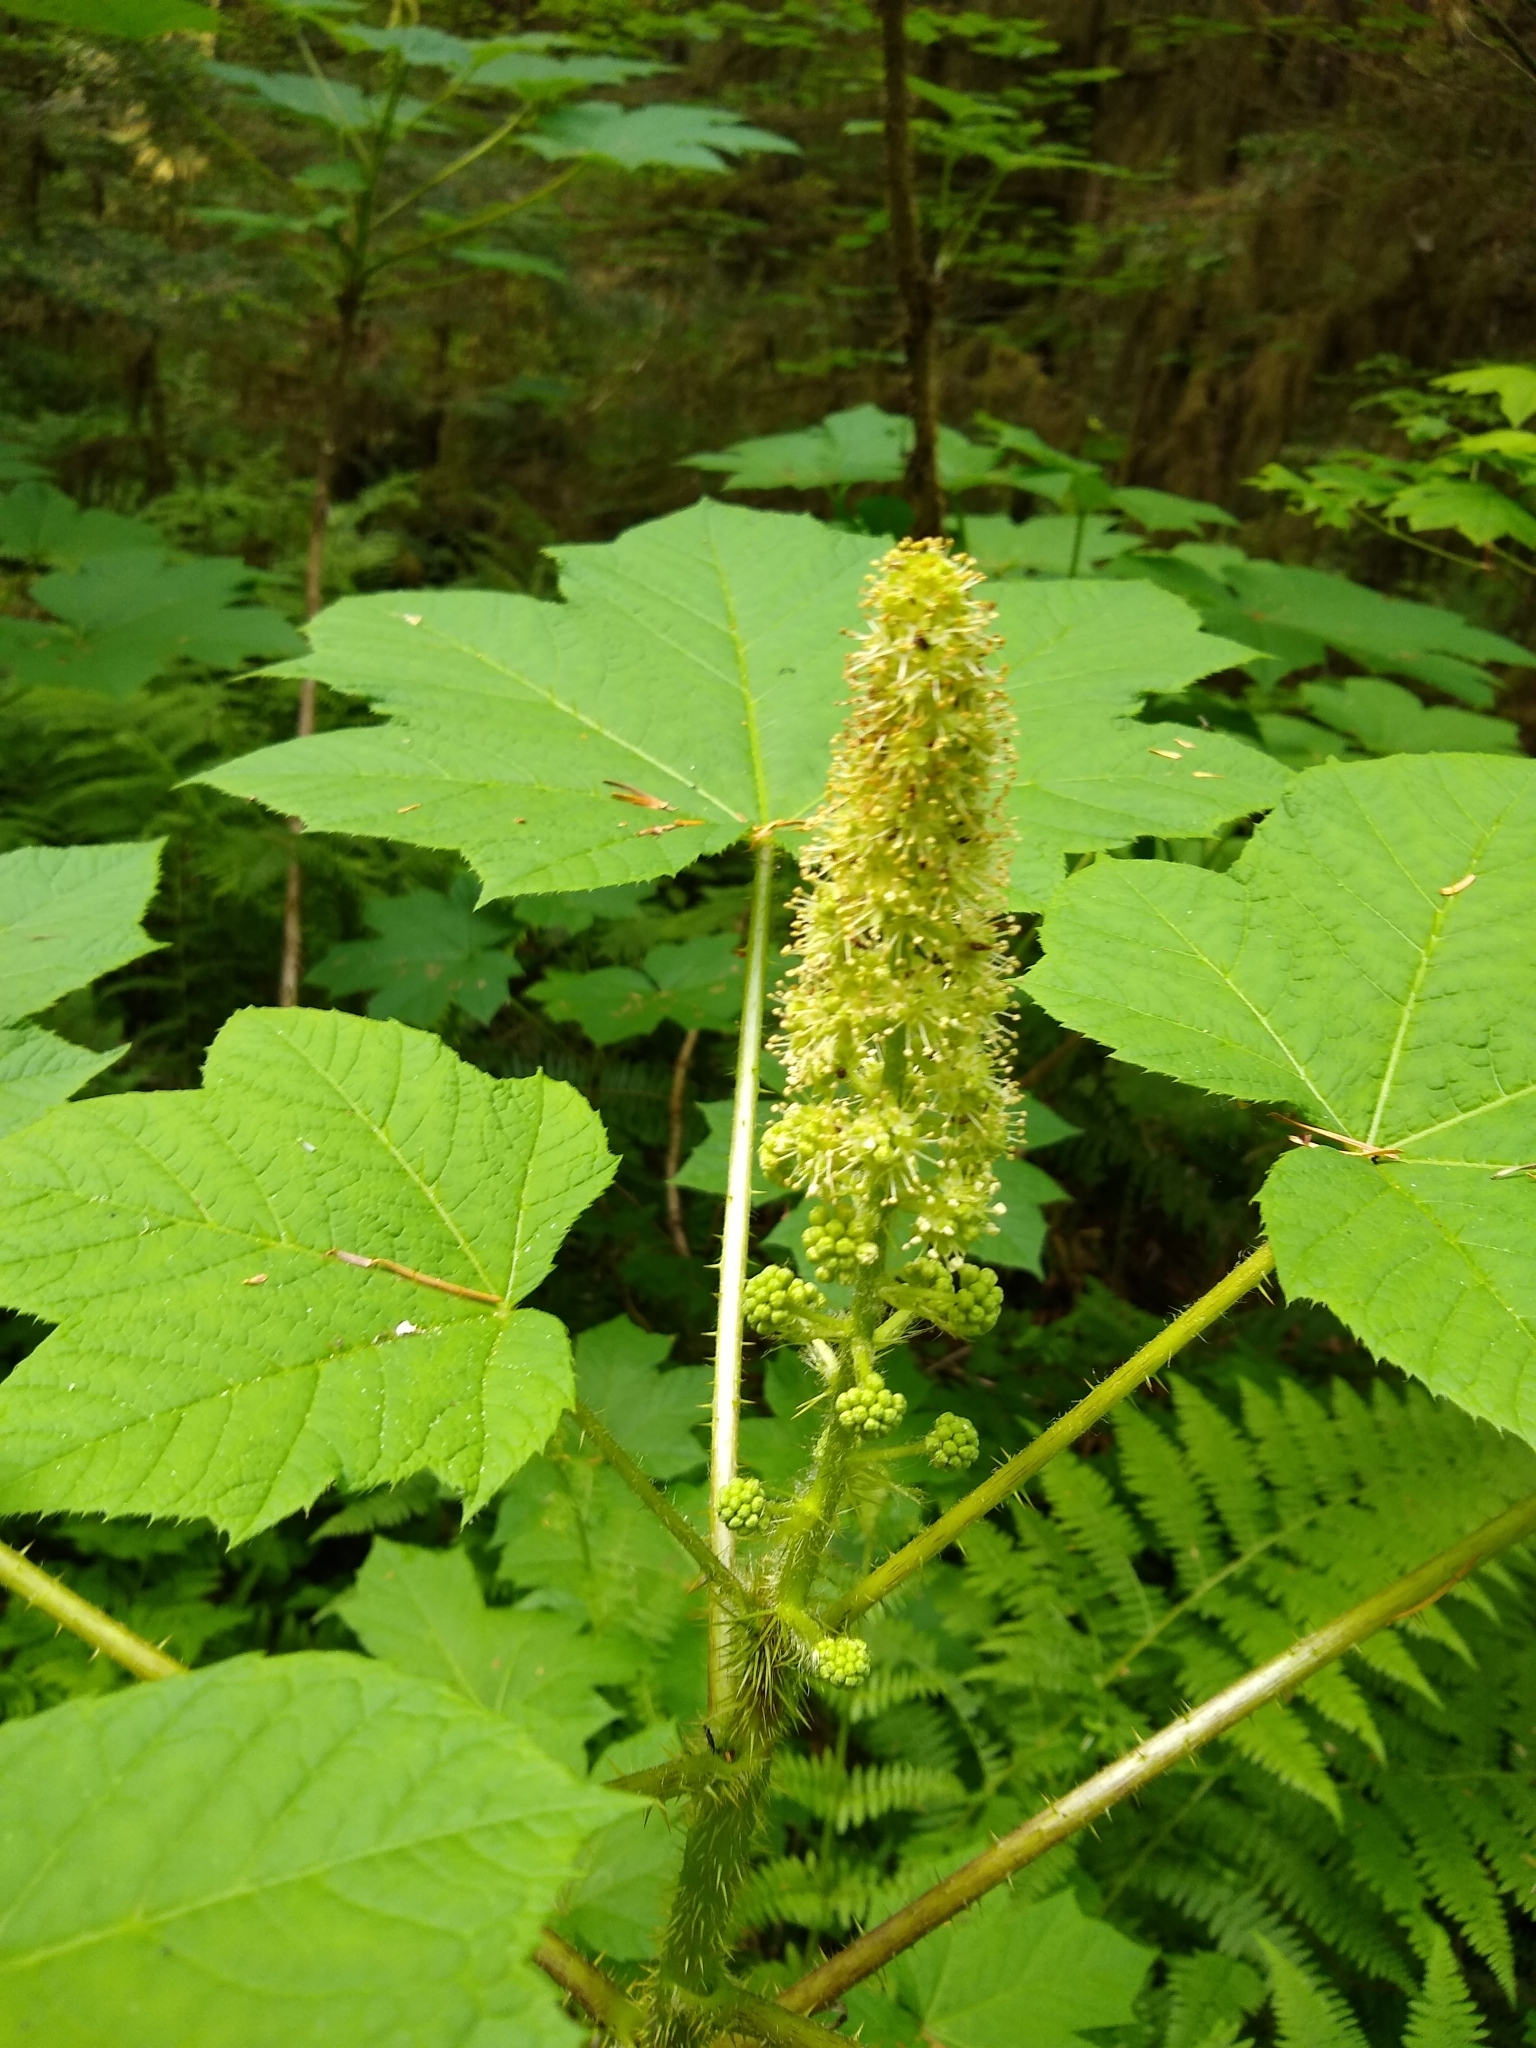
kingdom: Plantae
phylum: Tracheophyta
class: Magnoliopsida
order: Apiales
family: Araliaceae
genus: Oplopanax
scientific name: Oplopanax horridus
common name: Devil's walking-stick
